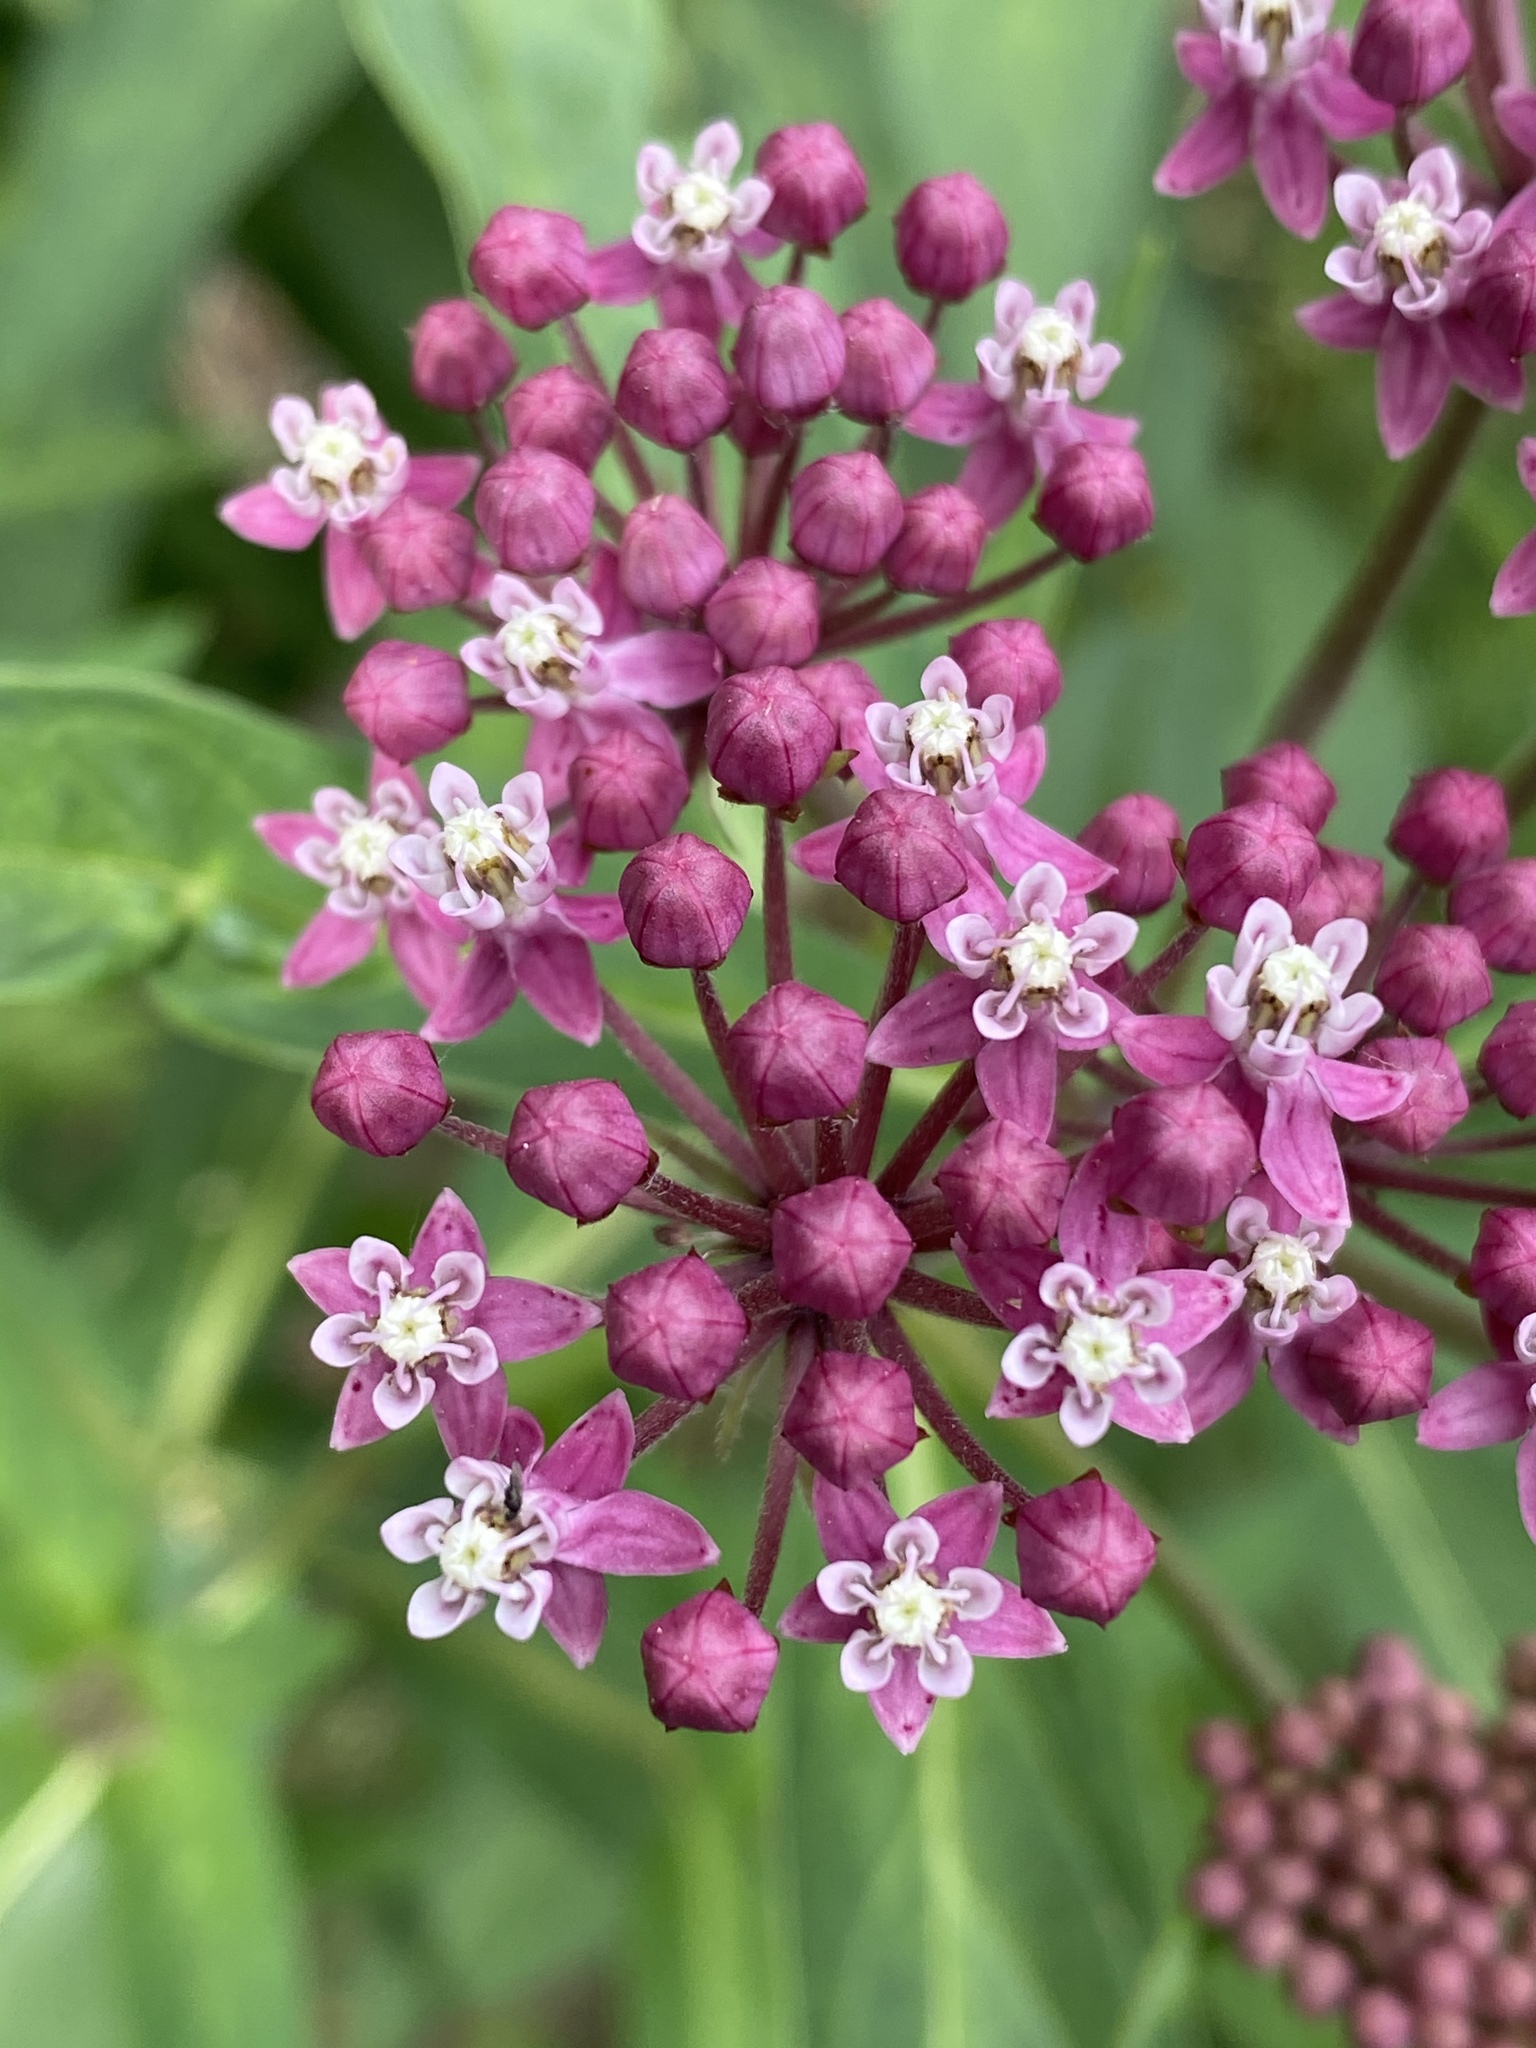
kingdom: Plantae
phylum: Tracheophyta
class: Magnoliopsida
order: Gentianales
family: Apocynaceae
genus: Asclepias
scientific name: Asclepias incarnata
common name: Swamp milkweed
